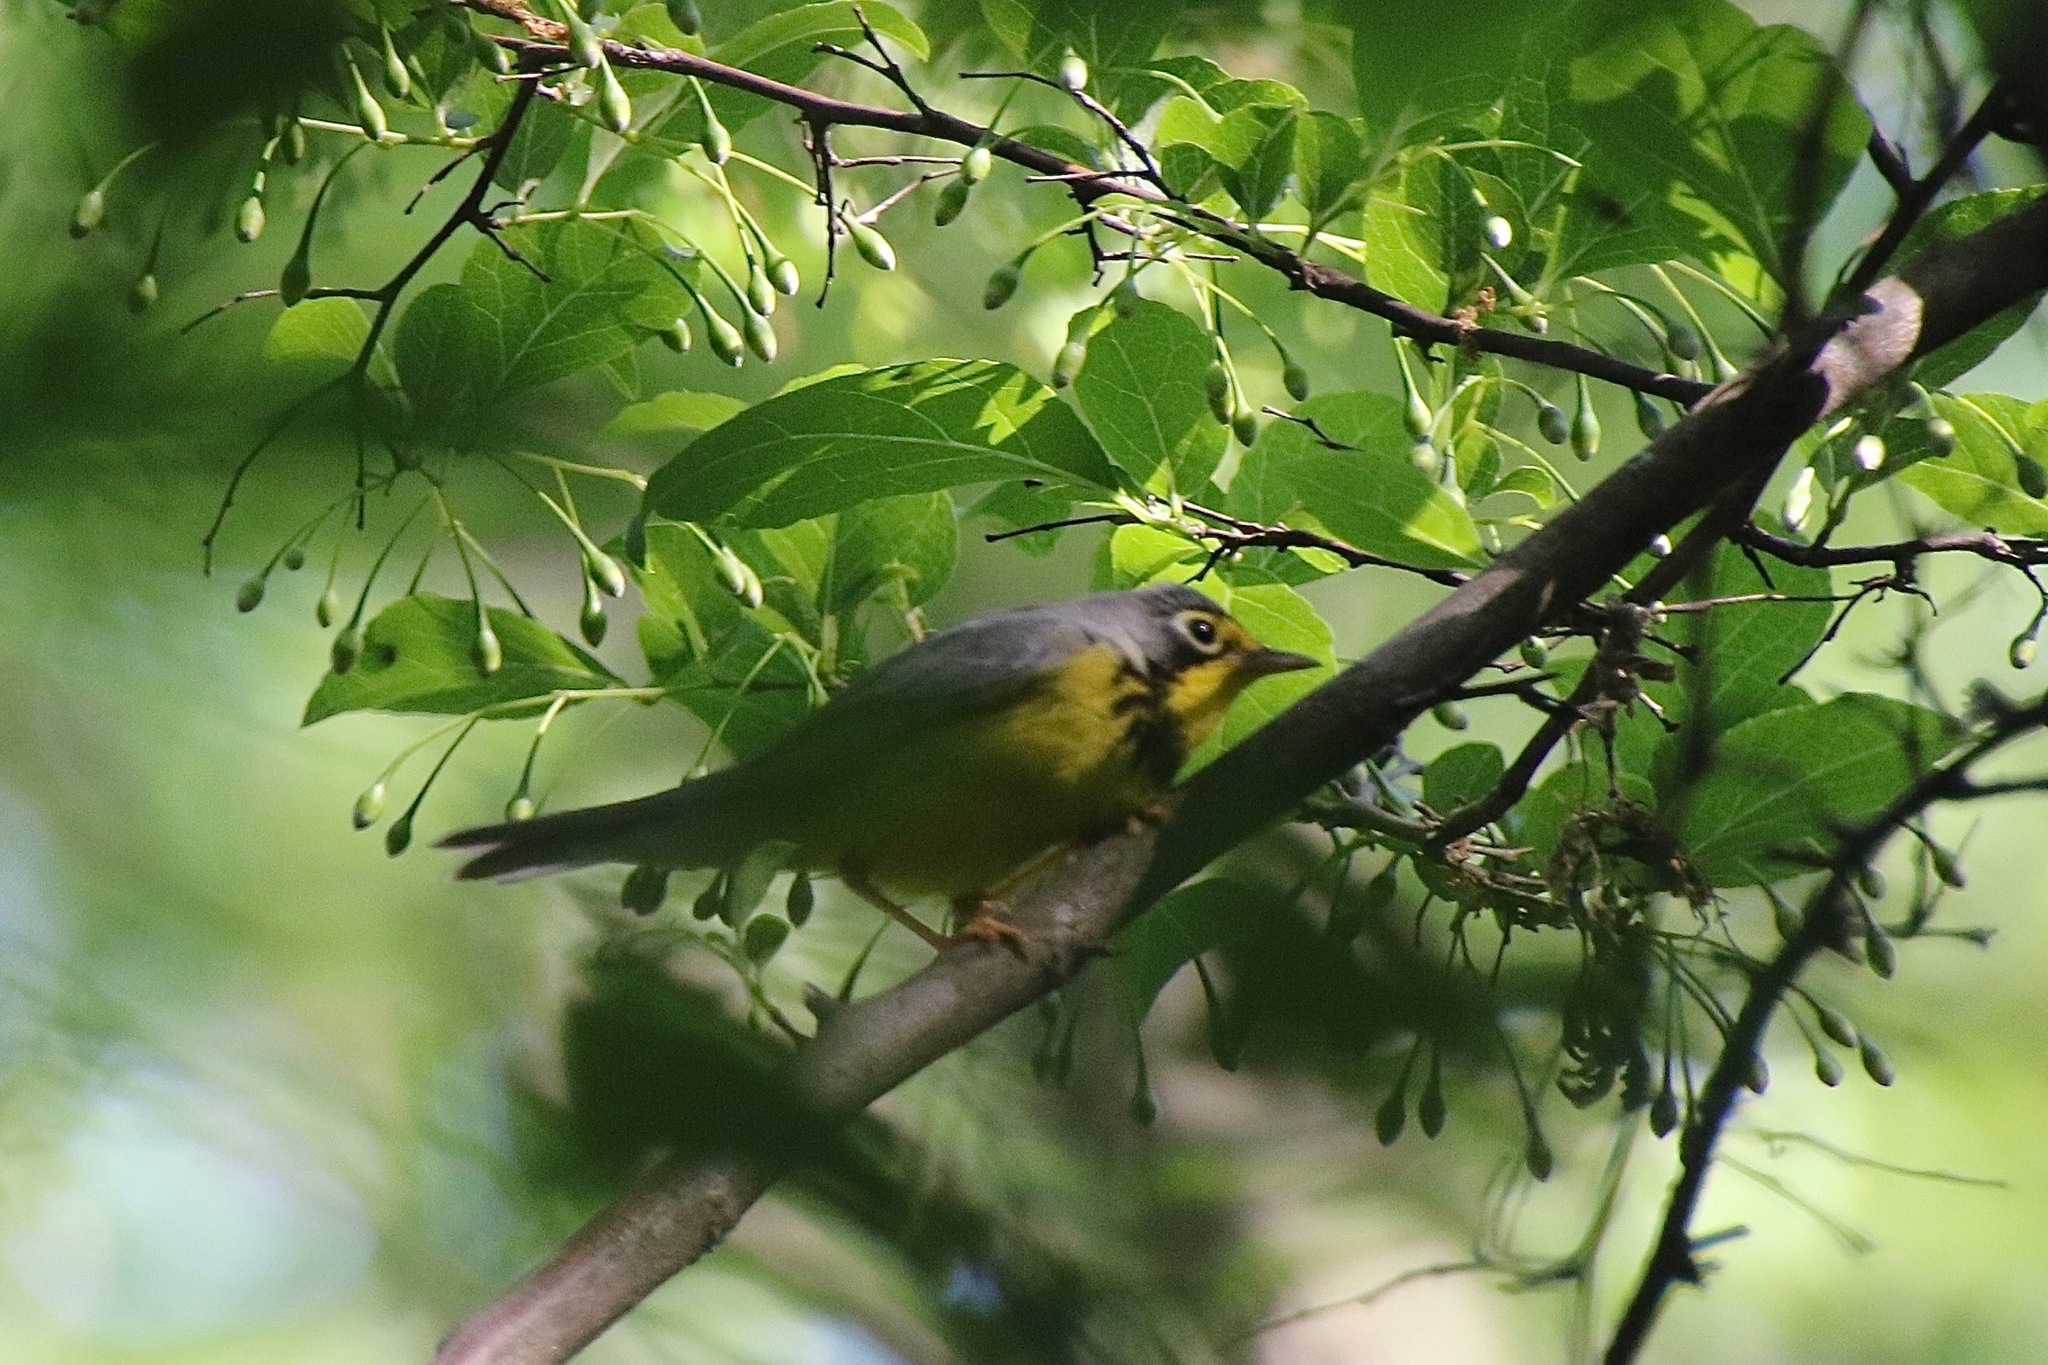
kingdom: Animalia
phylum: Chordata
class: Aves
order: Passeriformes
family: Parulidae
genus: Cardellina
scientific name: Cardellina canadensis
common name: Canada warbler
